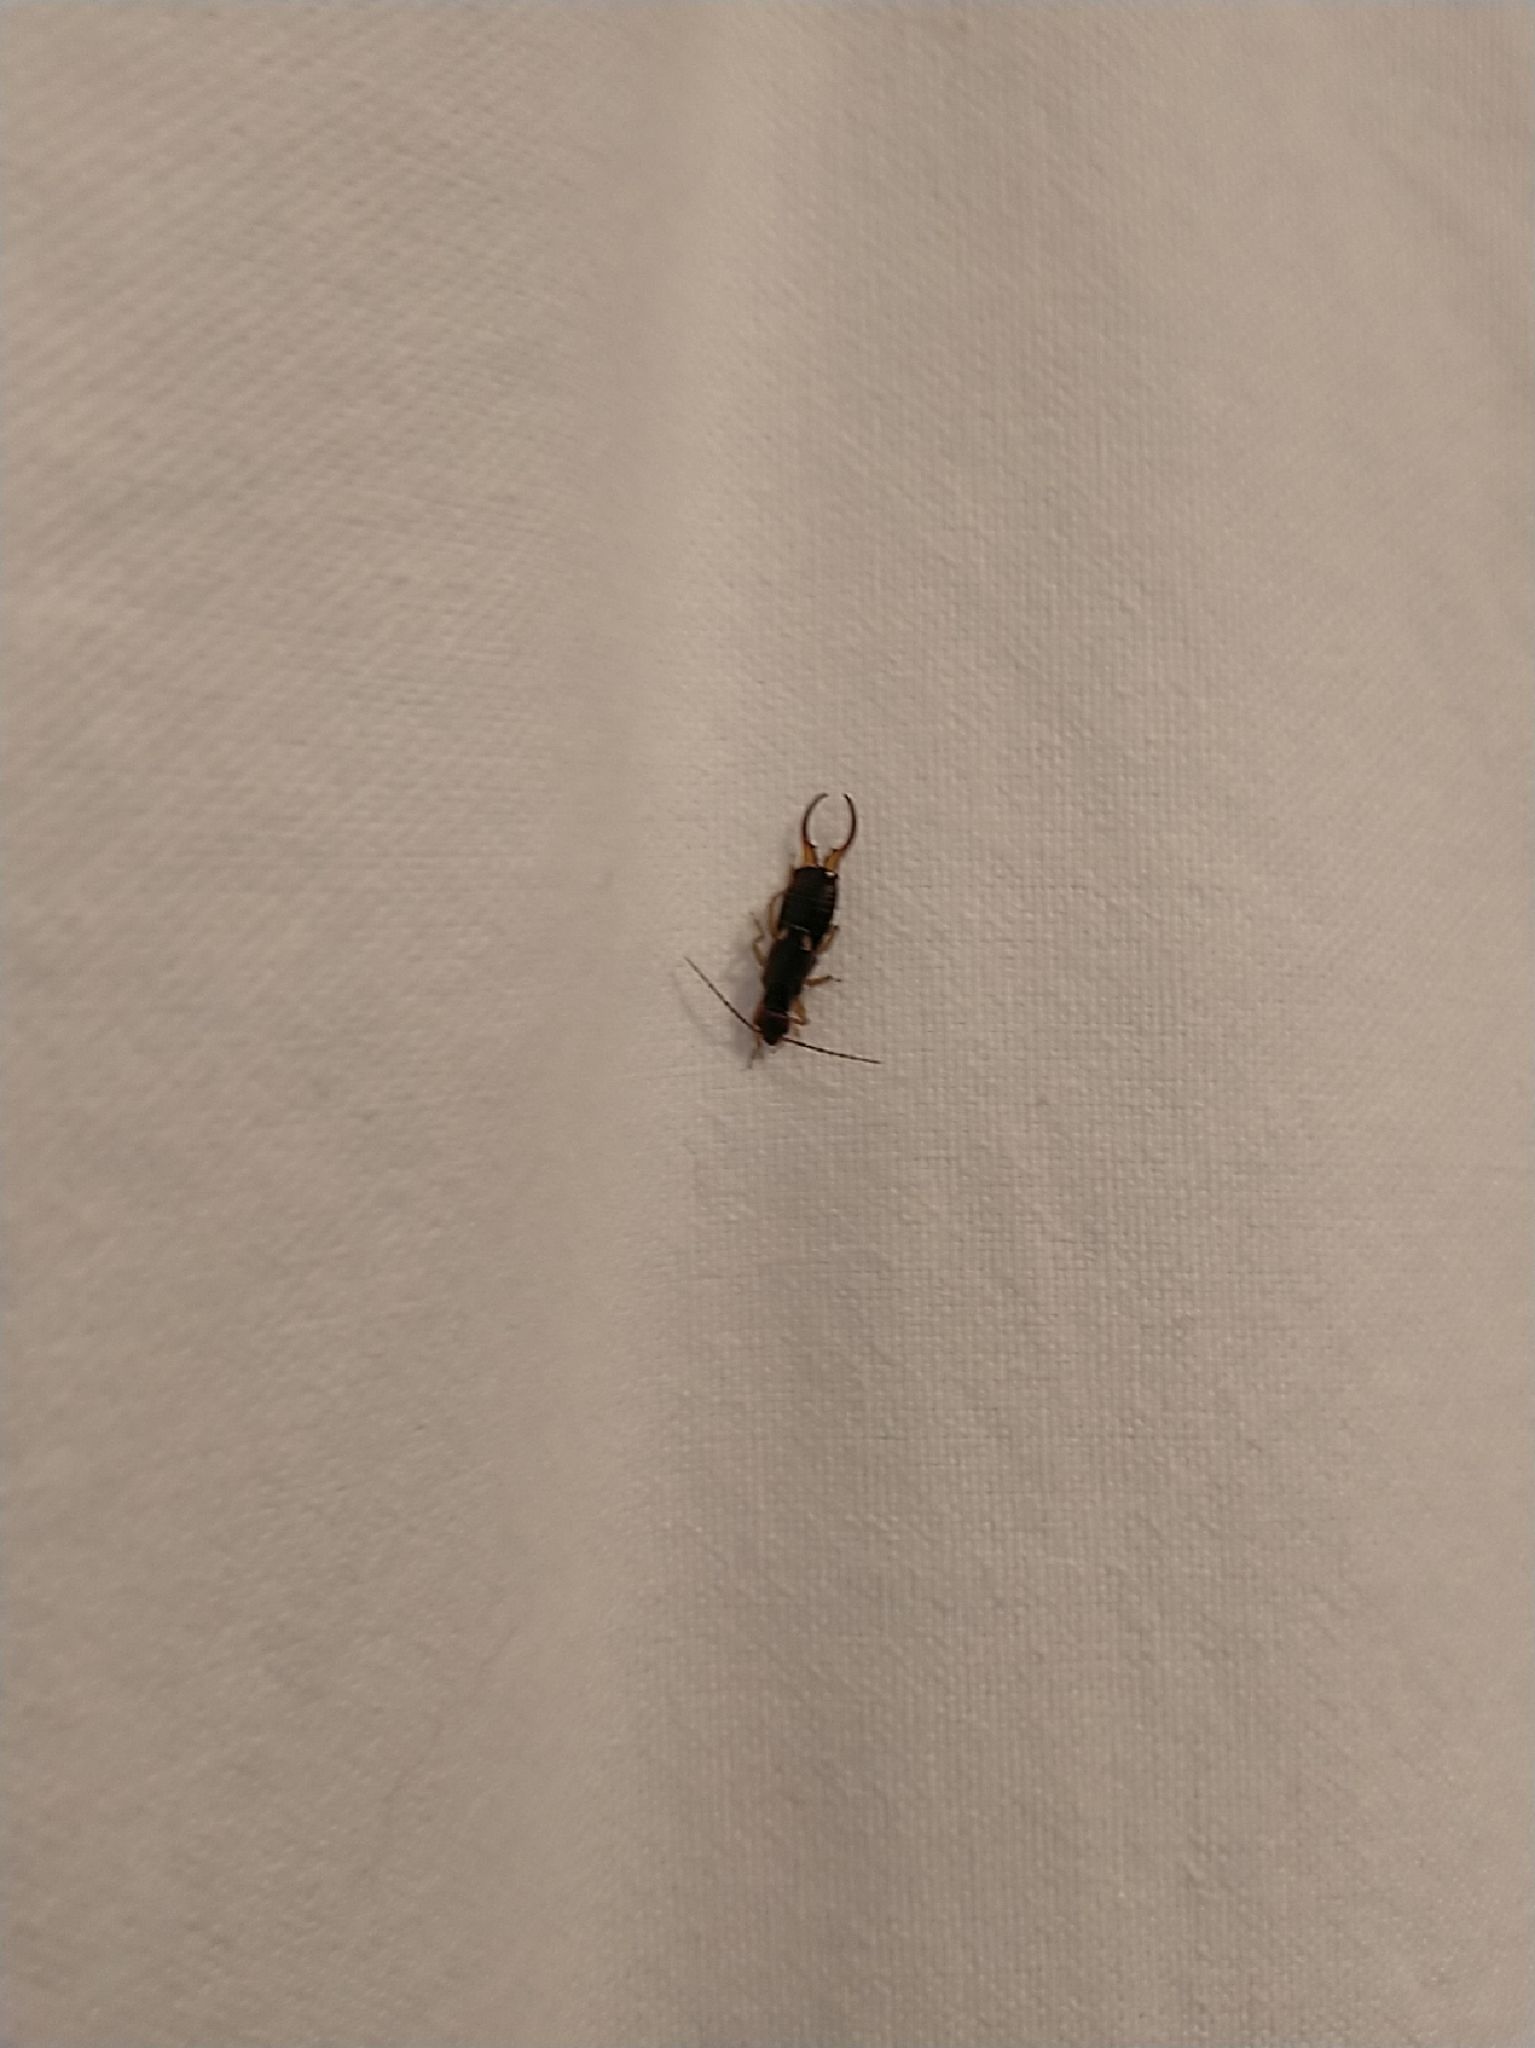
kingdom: Animalia
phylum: Arthropoda
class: Insecta
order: Dermaptera
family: Forficulidae
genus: Forficula
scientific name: Forficula
